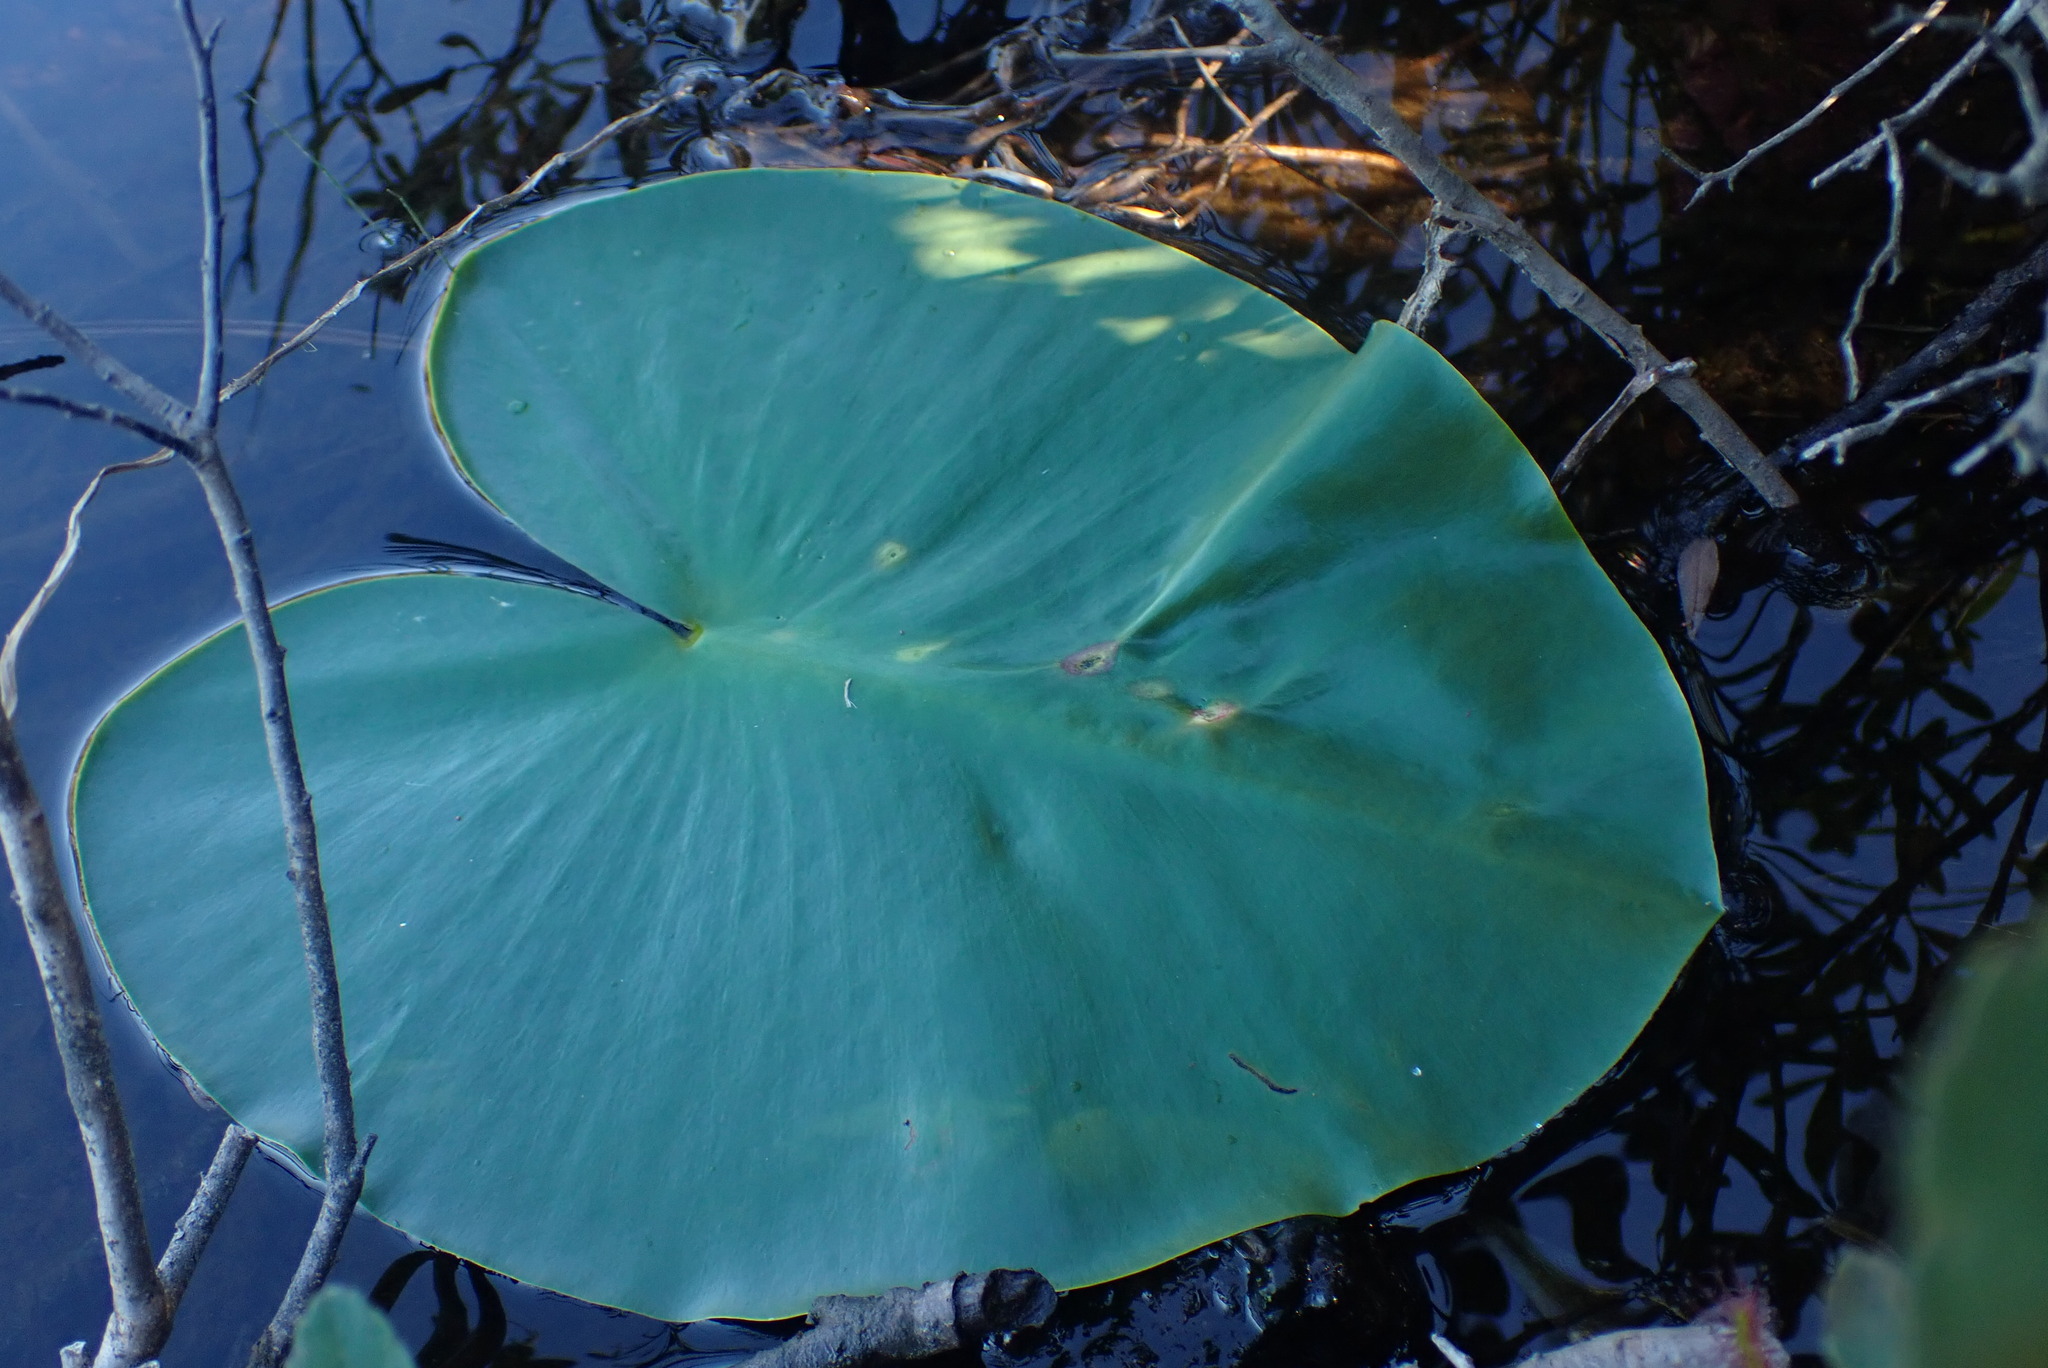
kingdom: Plantae
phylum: Tracheophyta
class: Magnoliopsida
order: Nymphaeales
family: Nymphaeaceae
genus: Nuphar
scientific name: Nuphar polysepala
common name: Rocky mountain cow-lily
